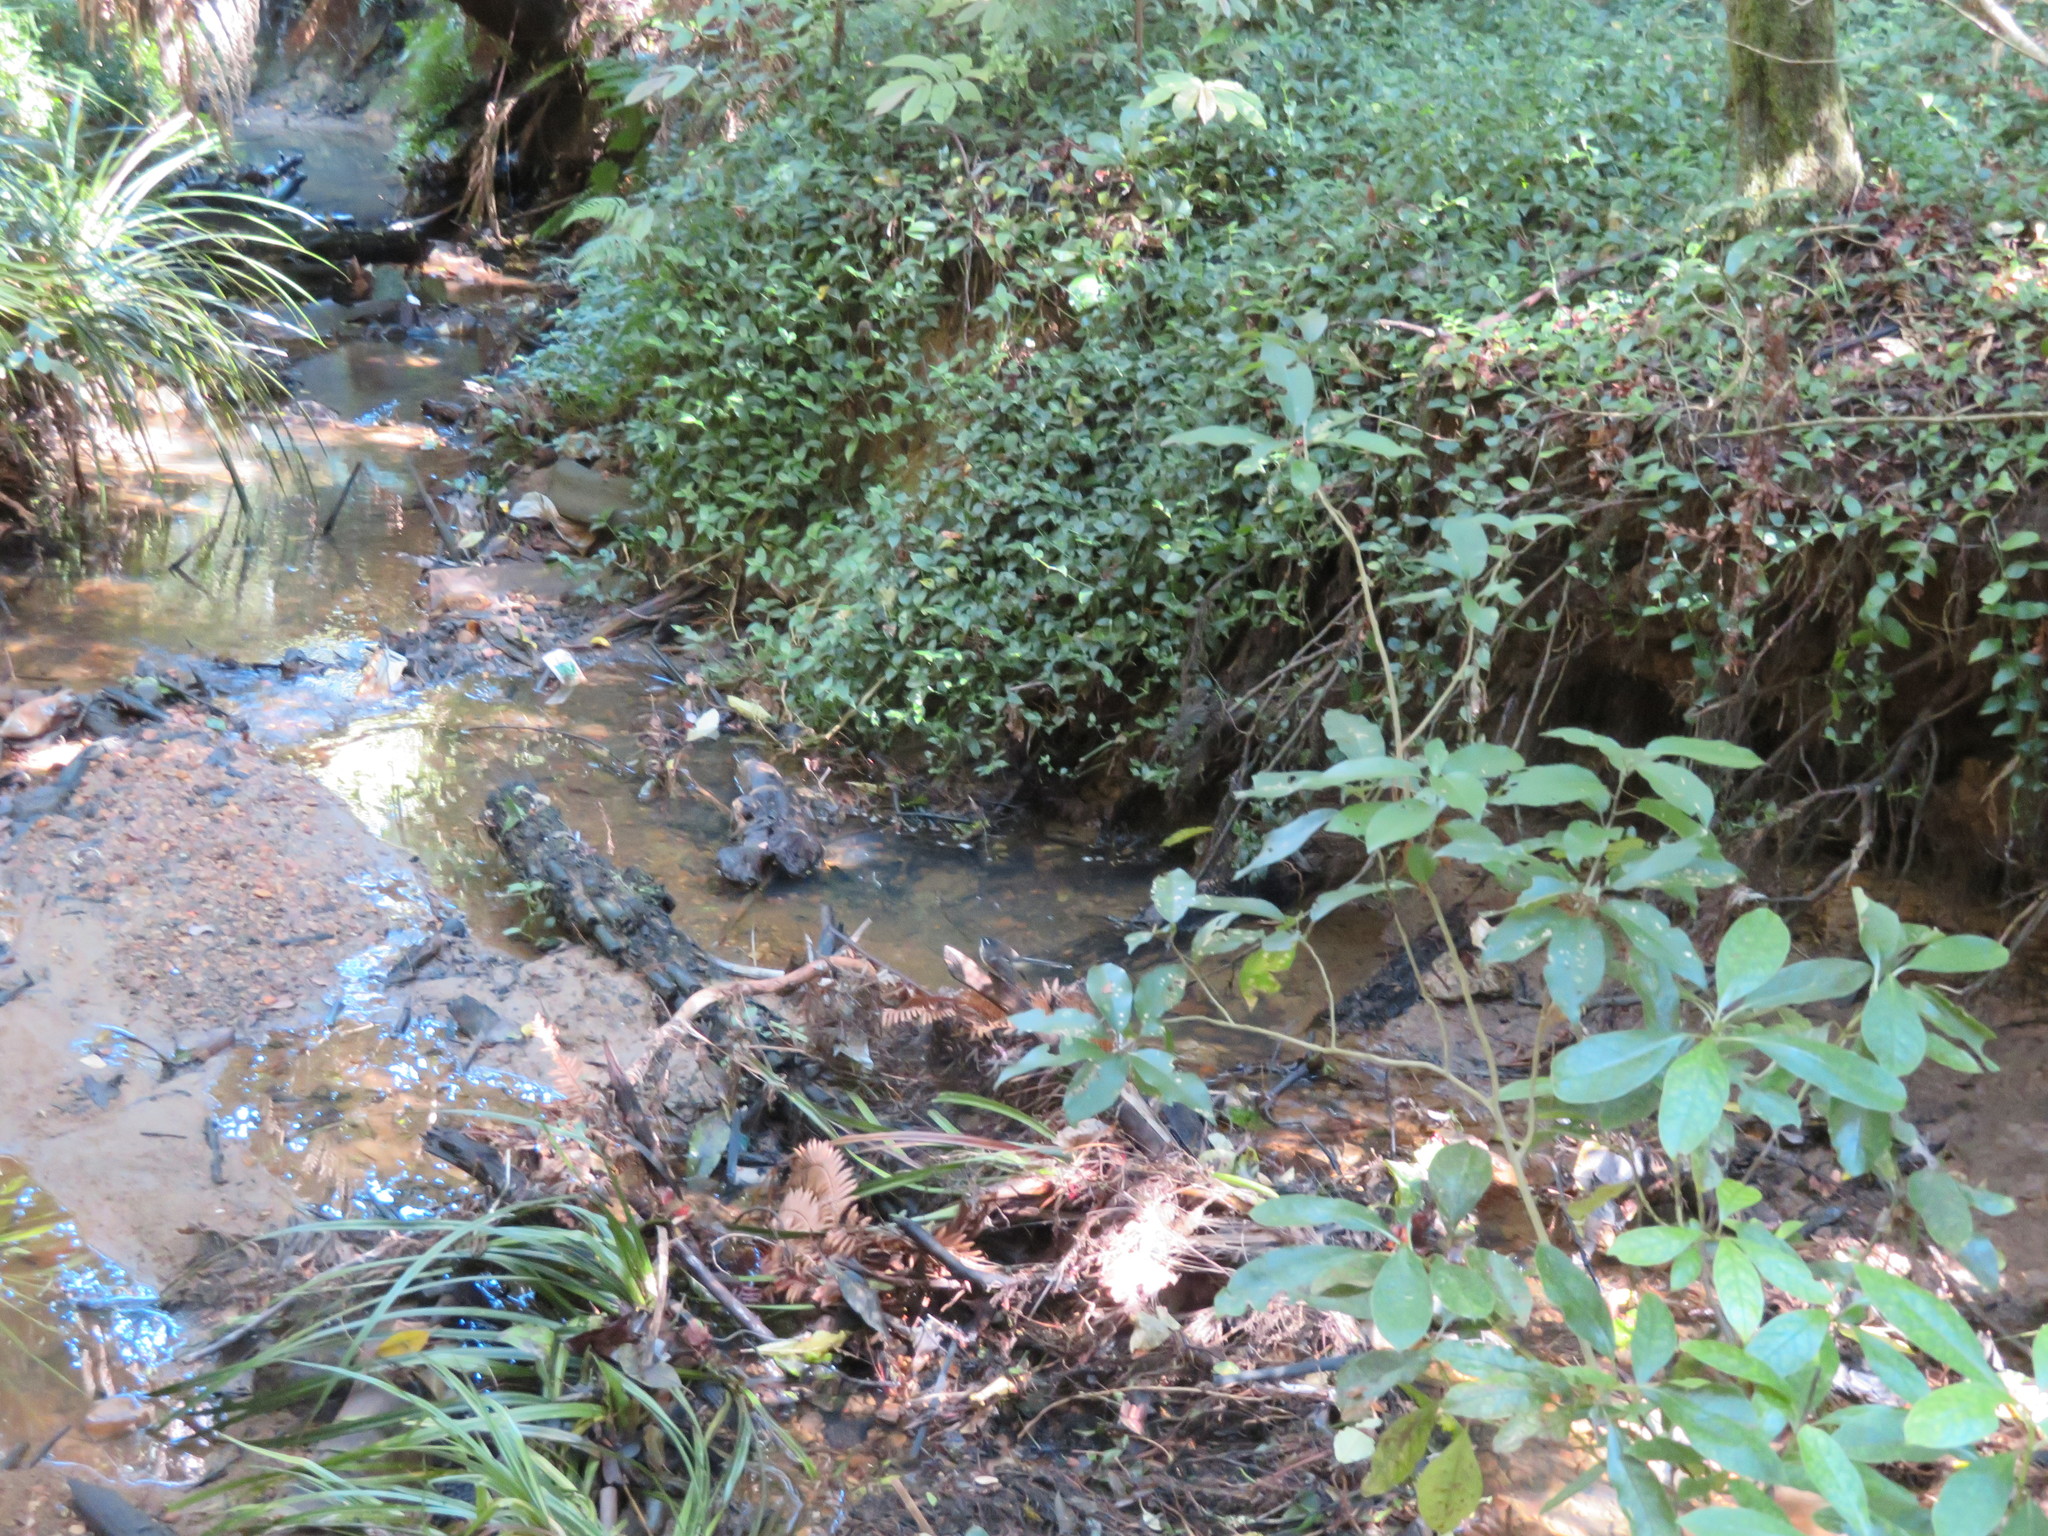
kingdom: Plantae
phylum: Tracheophyta
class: Liliopsida
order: Pandanales
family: Pandanaceae
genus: Freycinetia
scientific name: Freycinetia banksii
